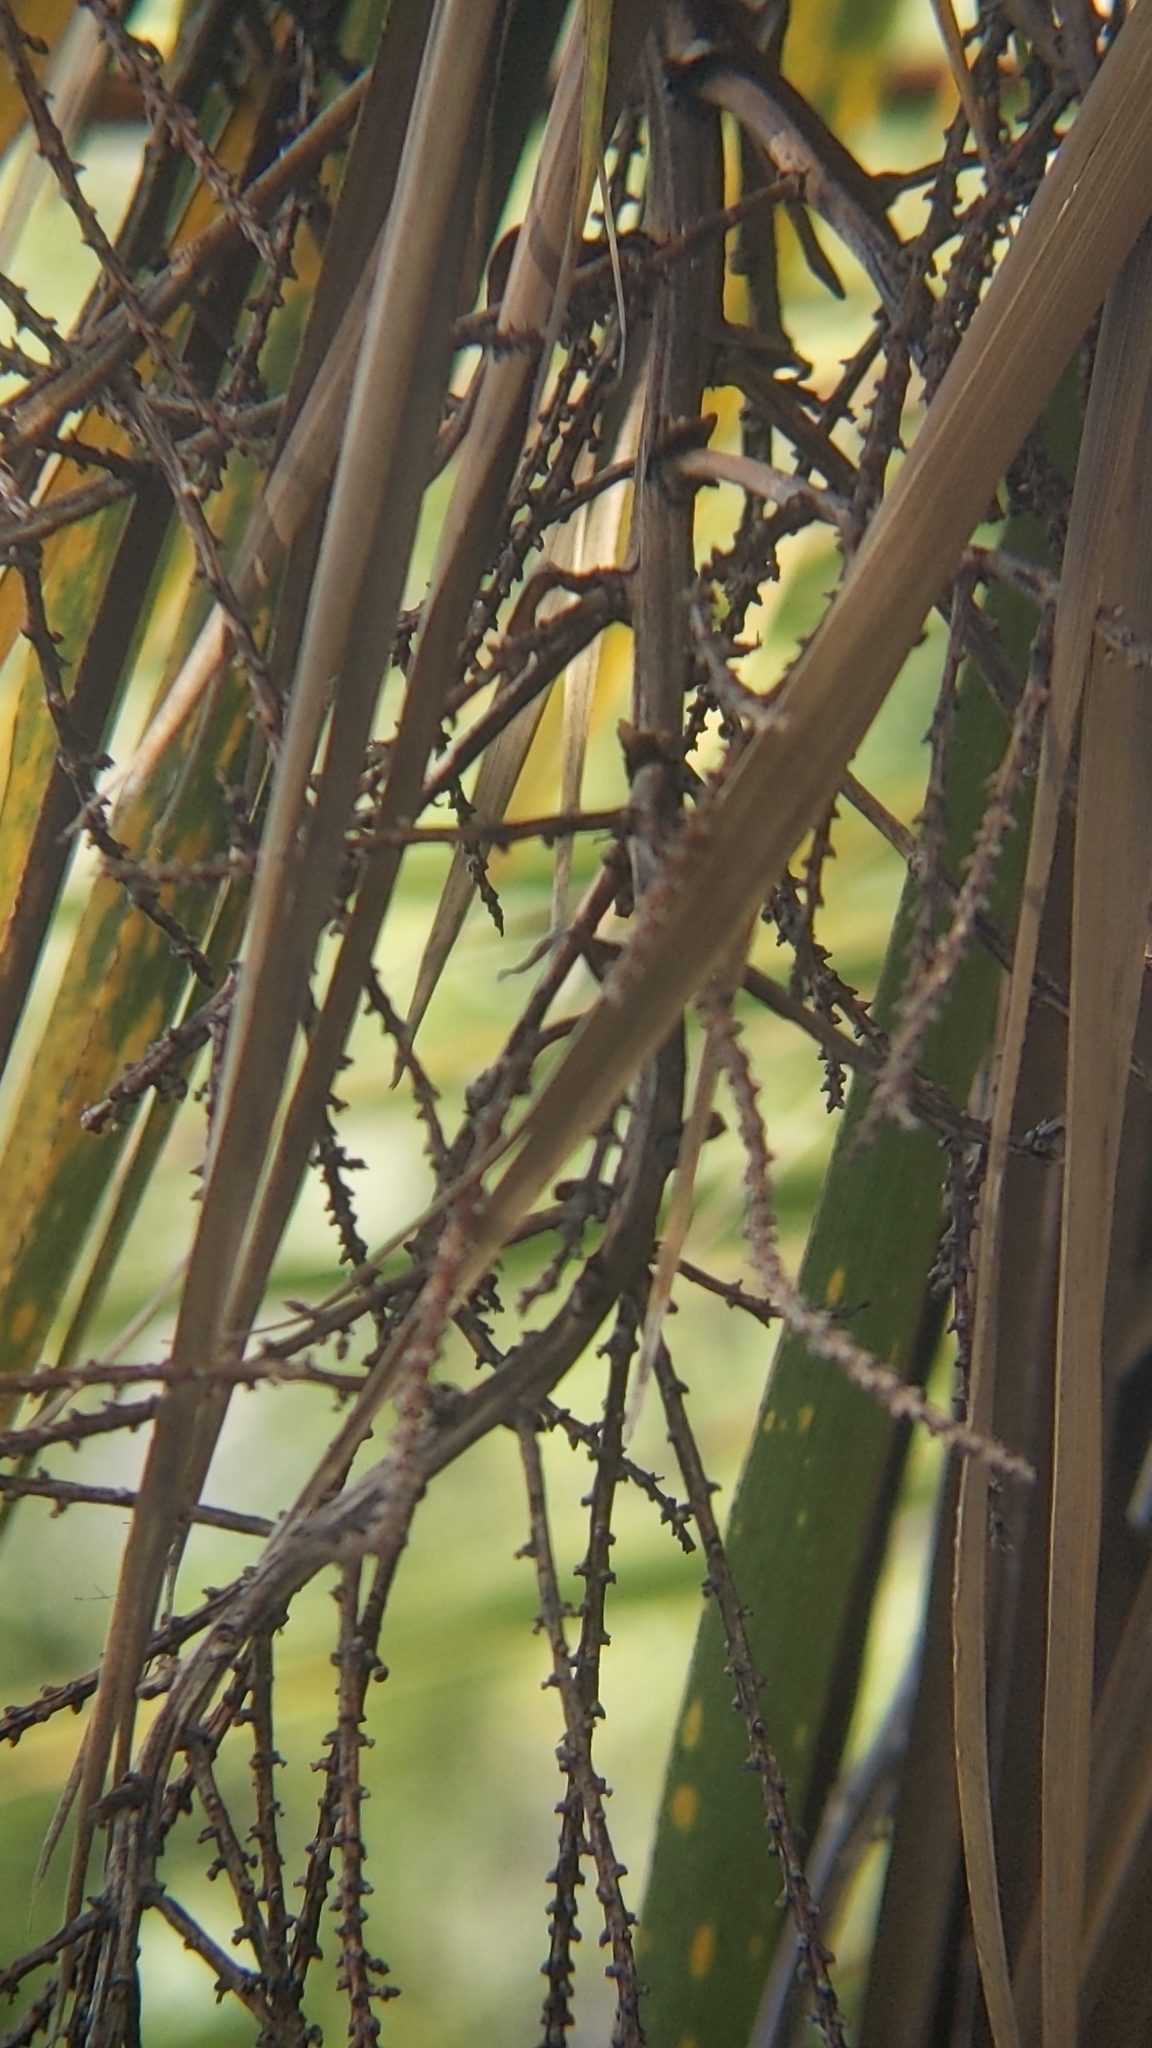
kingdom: Plantae
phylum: Tracheophyta
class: Liliopsida
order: Asparagales
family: Asparagaceae
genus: Cordyline
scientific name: Cordyline australis
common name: Cabbage-palm
